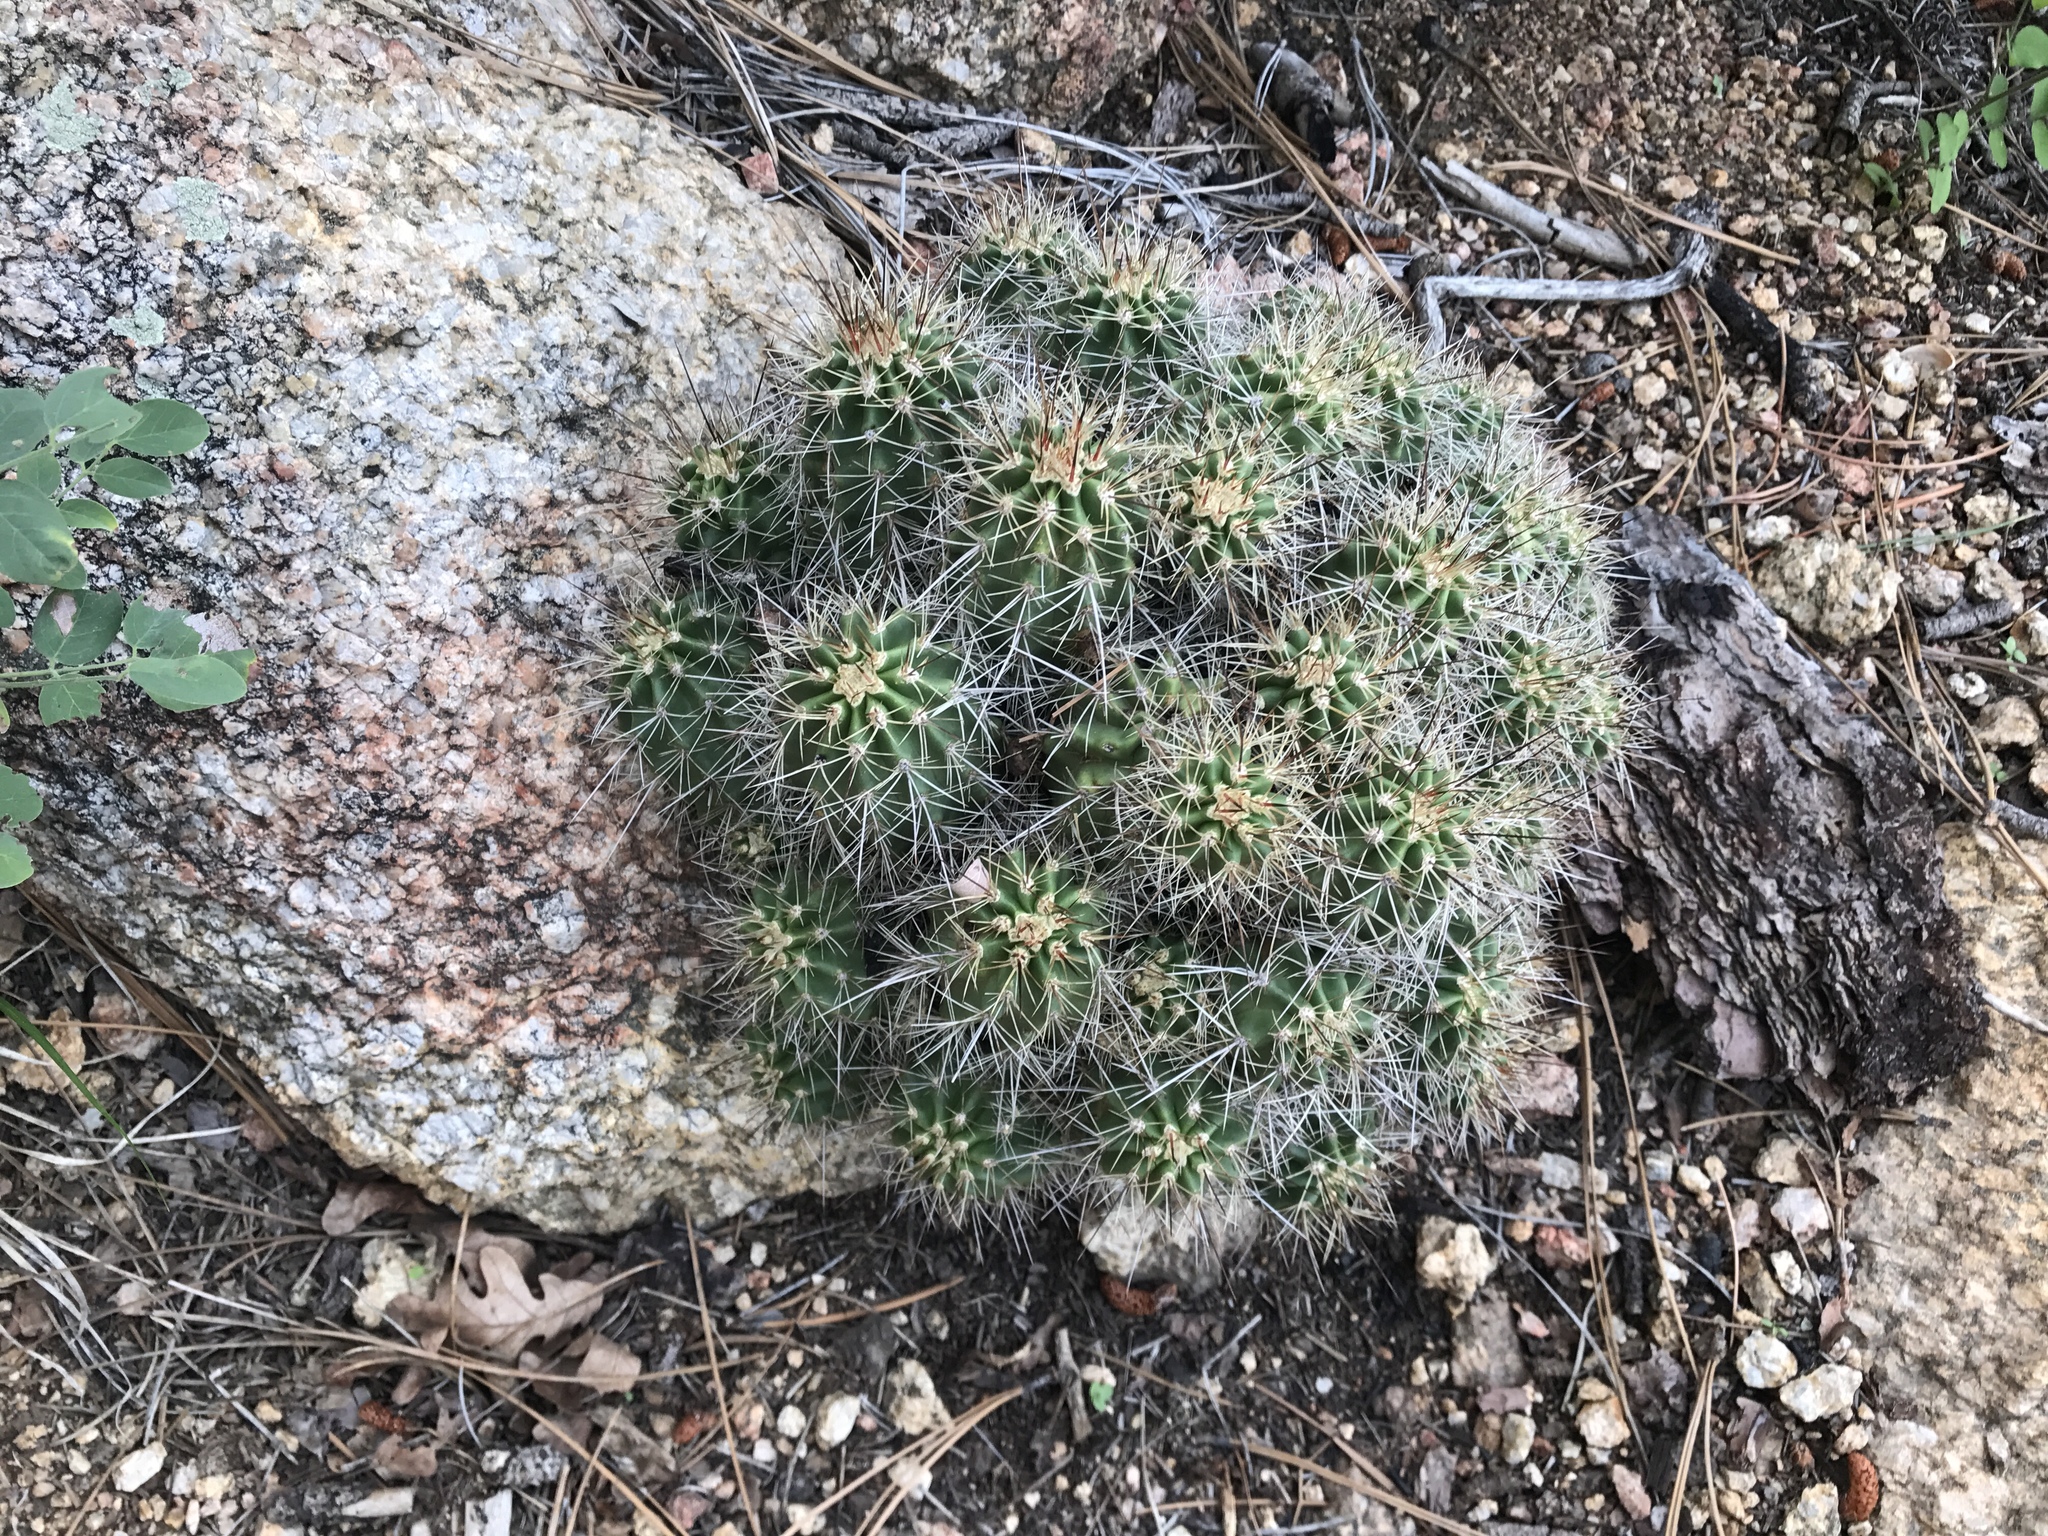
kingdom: Plantae
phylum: Tracheophyta
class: Magnoliopsida
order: Caryophyllales
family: Cactaceae
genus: Echinocereus
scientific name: Echinocereus bakeri
